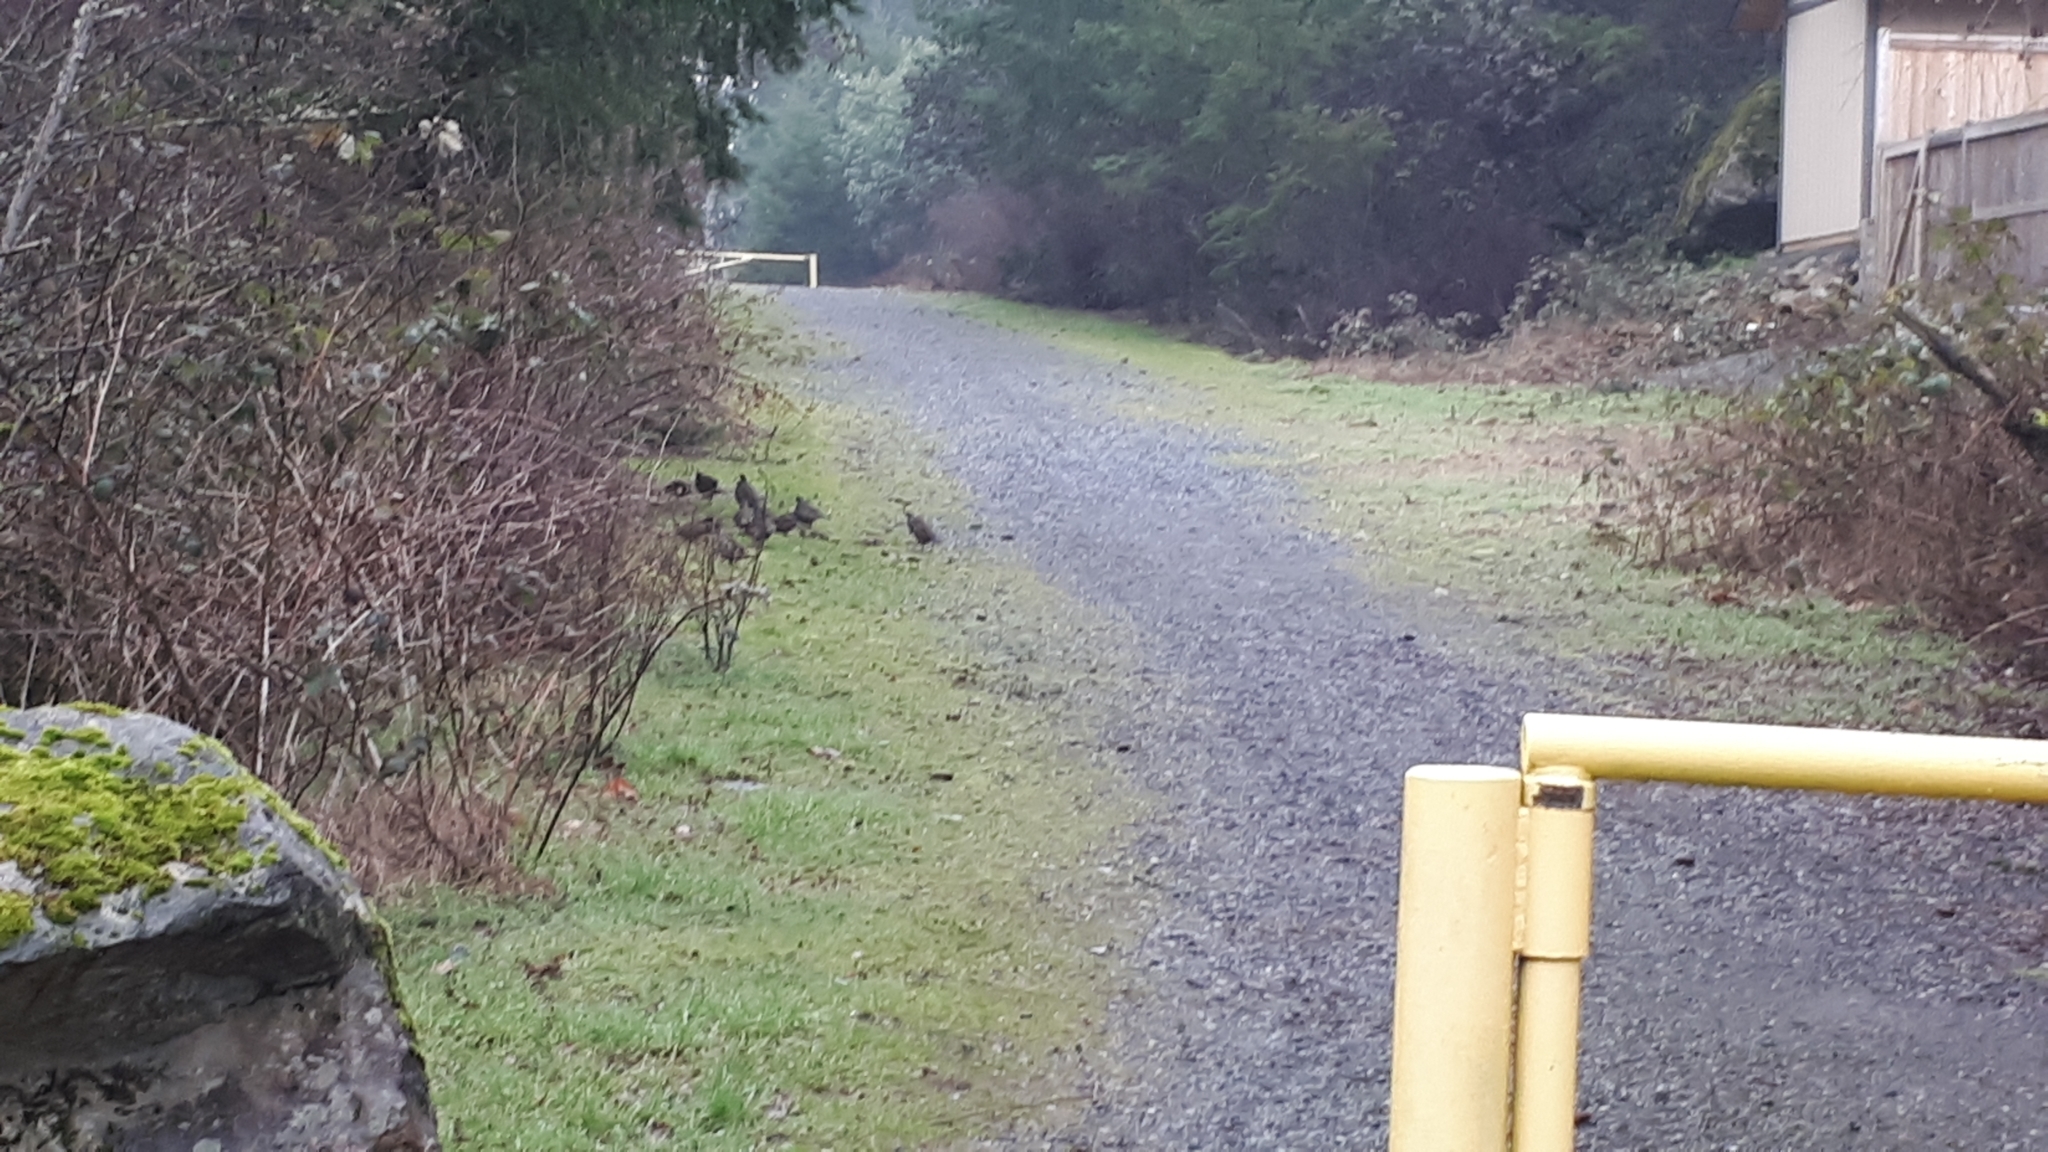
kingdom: Animalia
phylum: Chordata
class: Aves
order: Galliformes
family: Odontophoridae
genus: Callipepla
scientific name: Callipepla californica
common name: California quail
